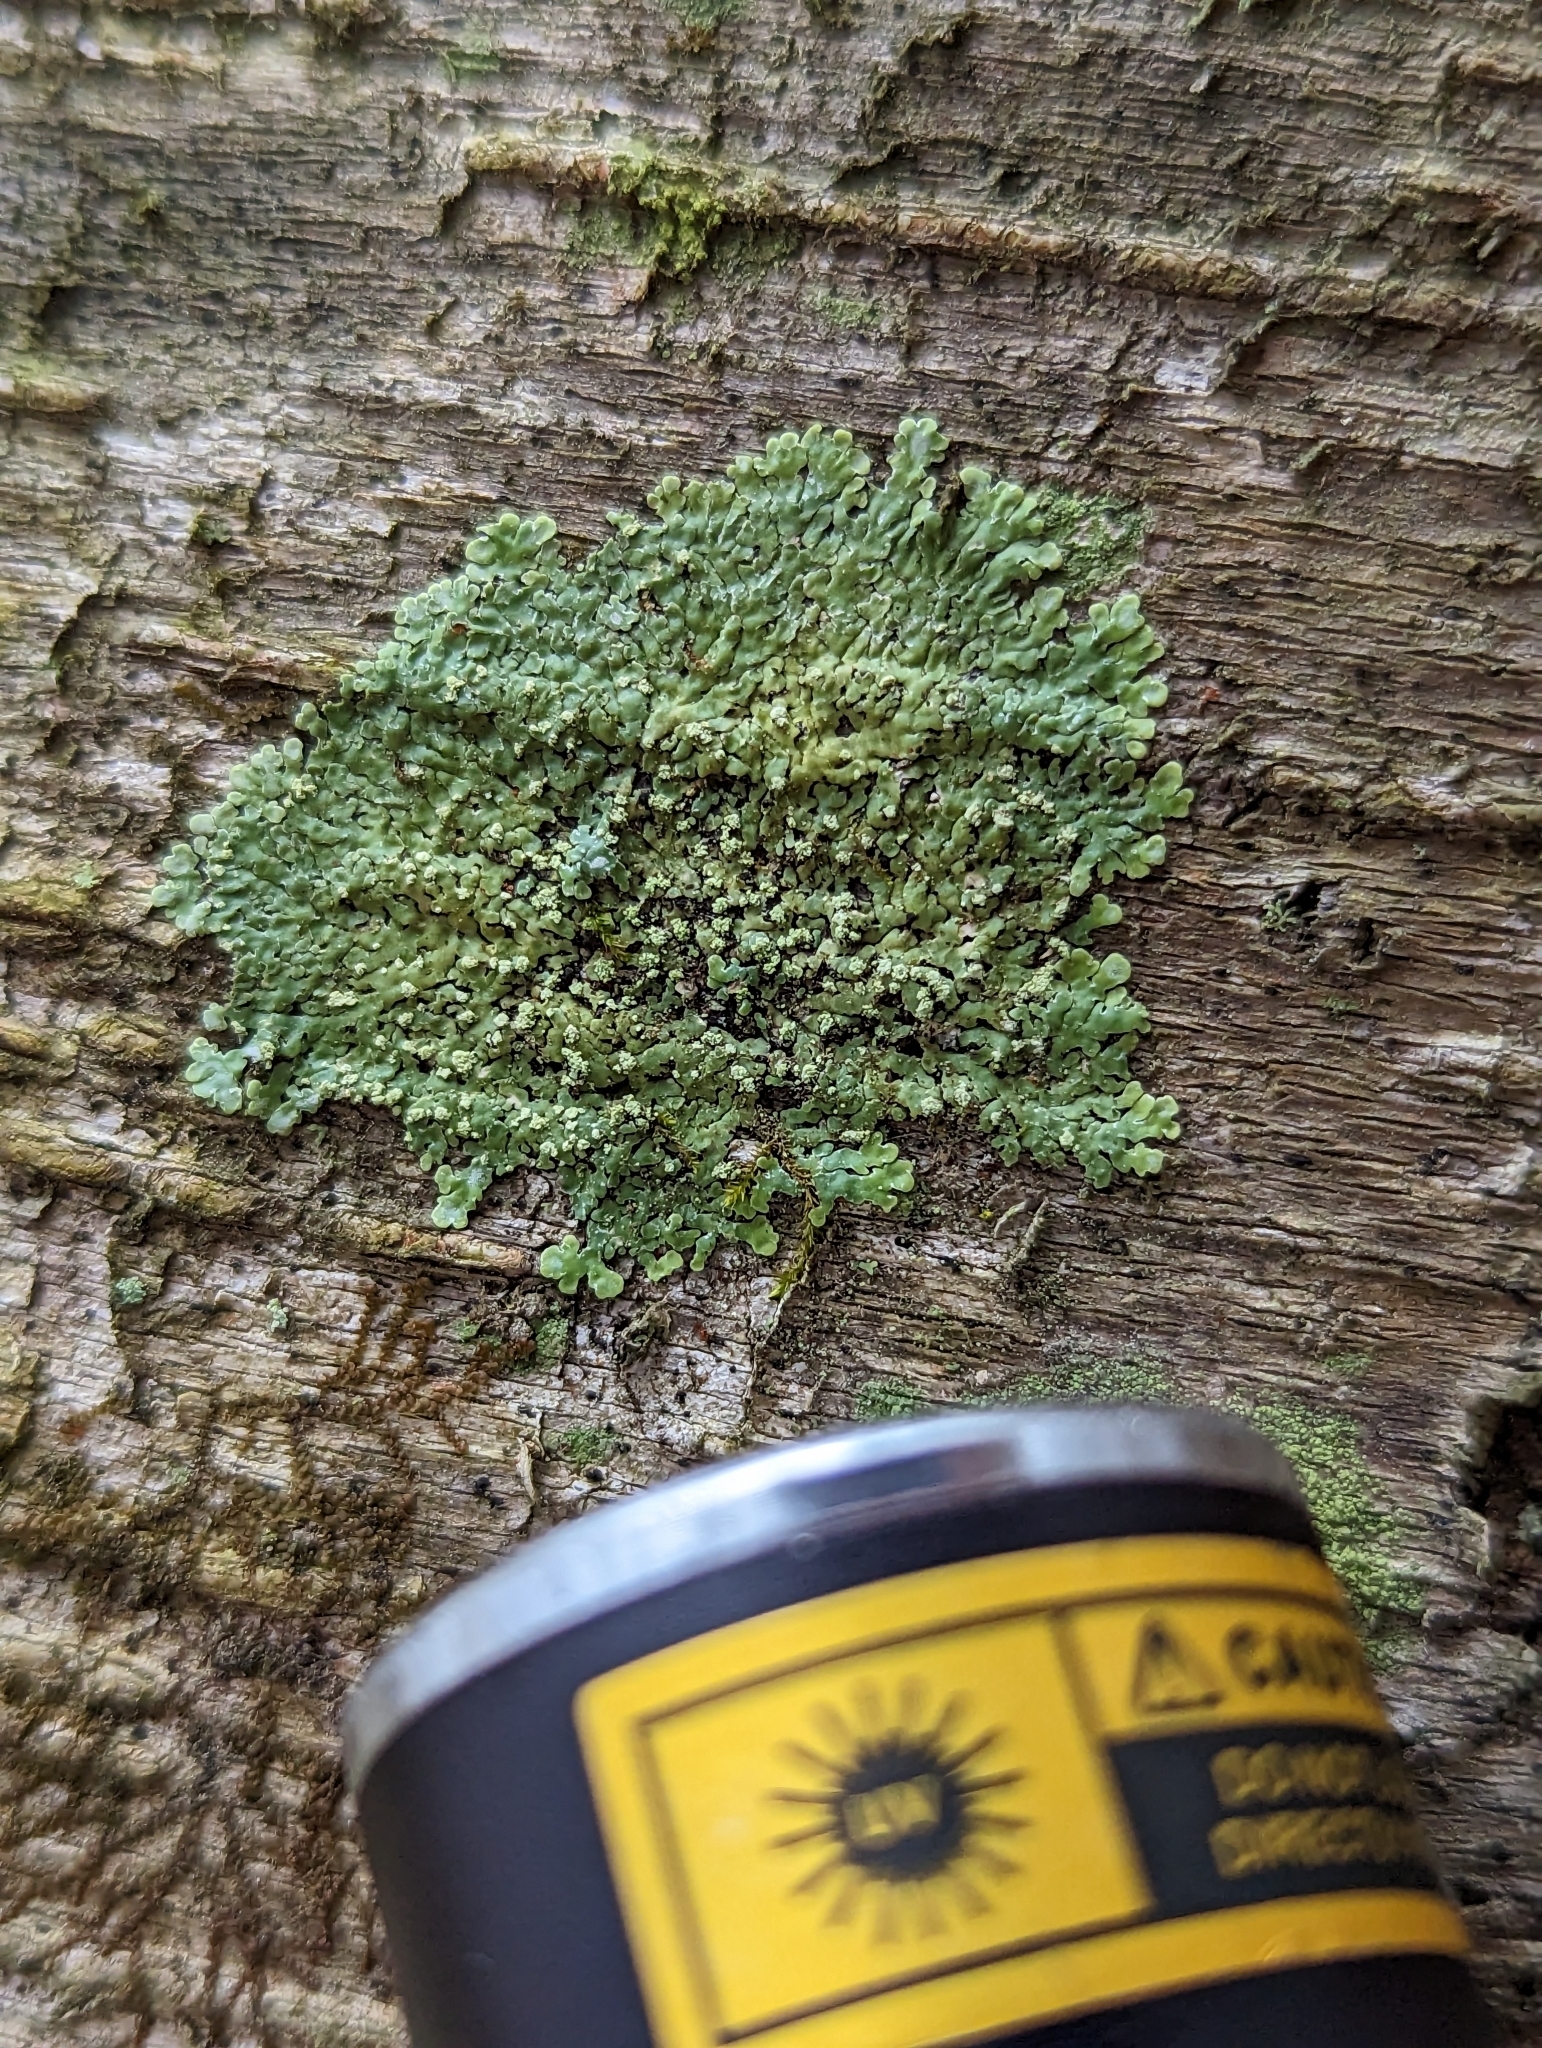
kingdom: Fungi
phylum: Ascomycota
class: Lecanoromycetes
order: Caliciales
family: Caliciaceae
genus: Pyxine
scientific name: Pyxine subcinerea
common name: Mustard lichen
